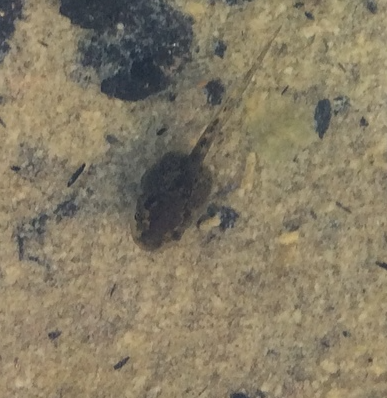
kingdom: Animalia
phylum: Chordata
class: Amphibia
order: Anura
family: Hylidae
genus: Pseudacris
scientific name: Pseudacris regilla
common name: Pacific chorus frog
